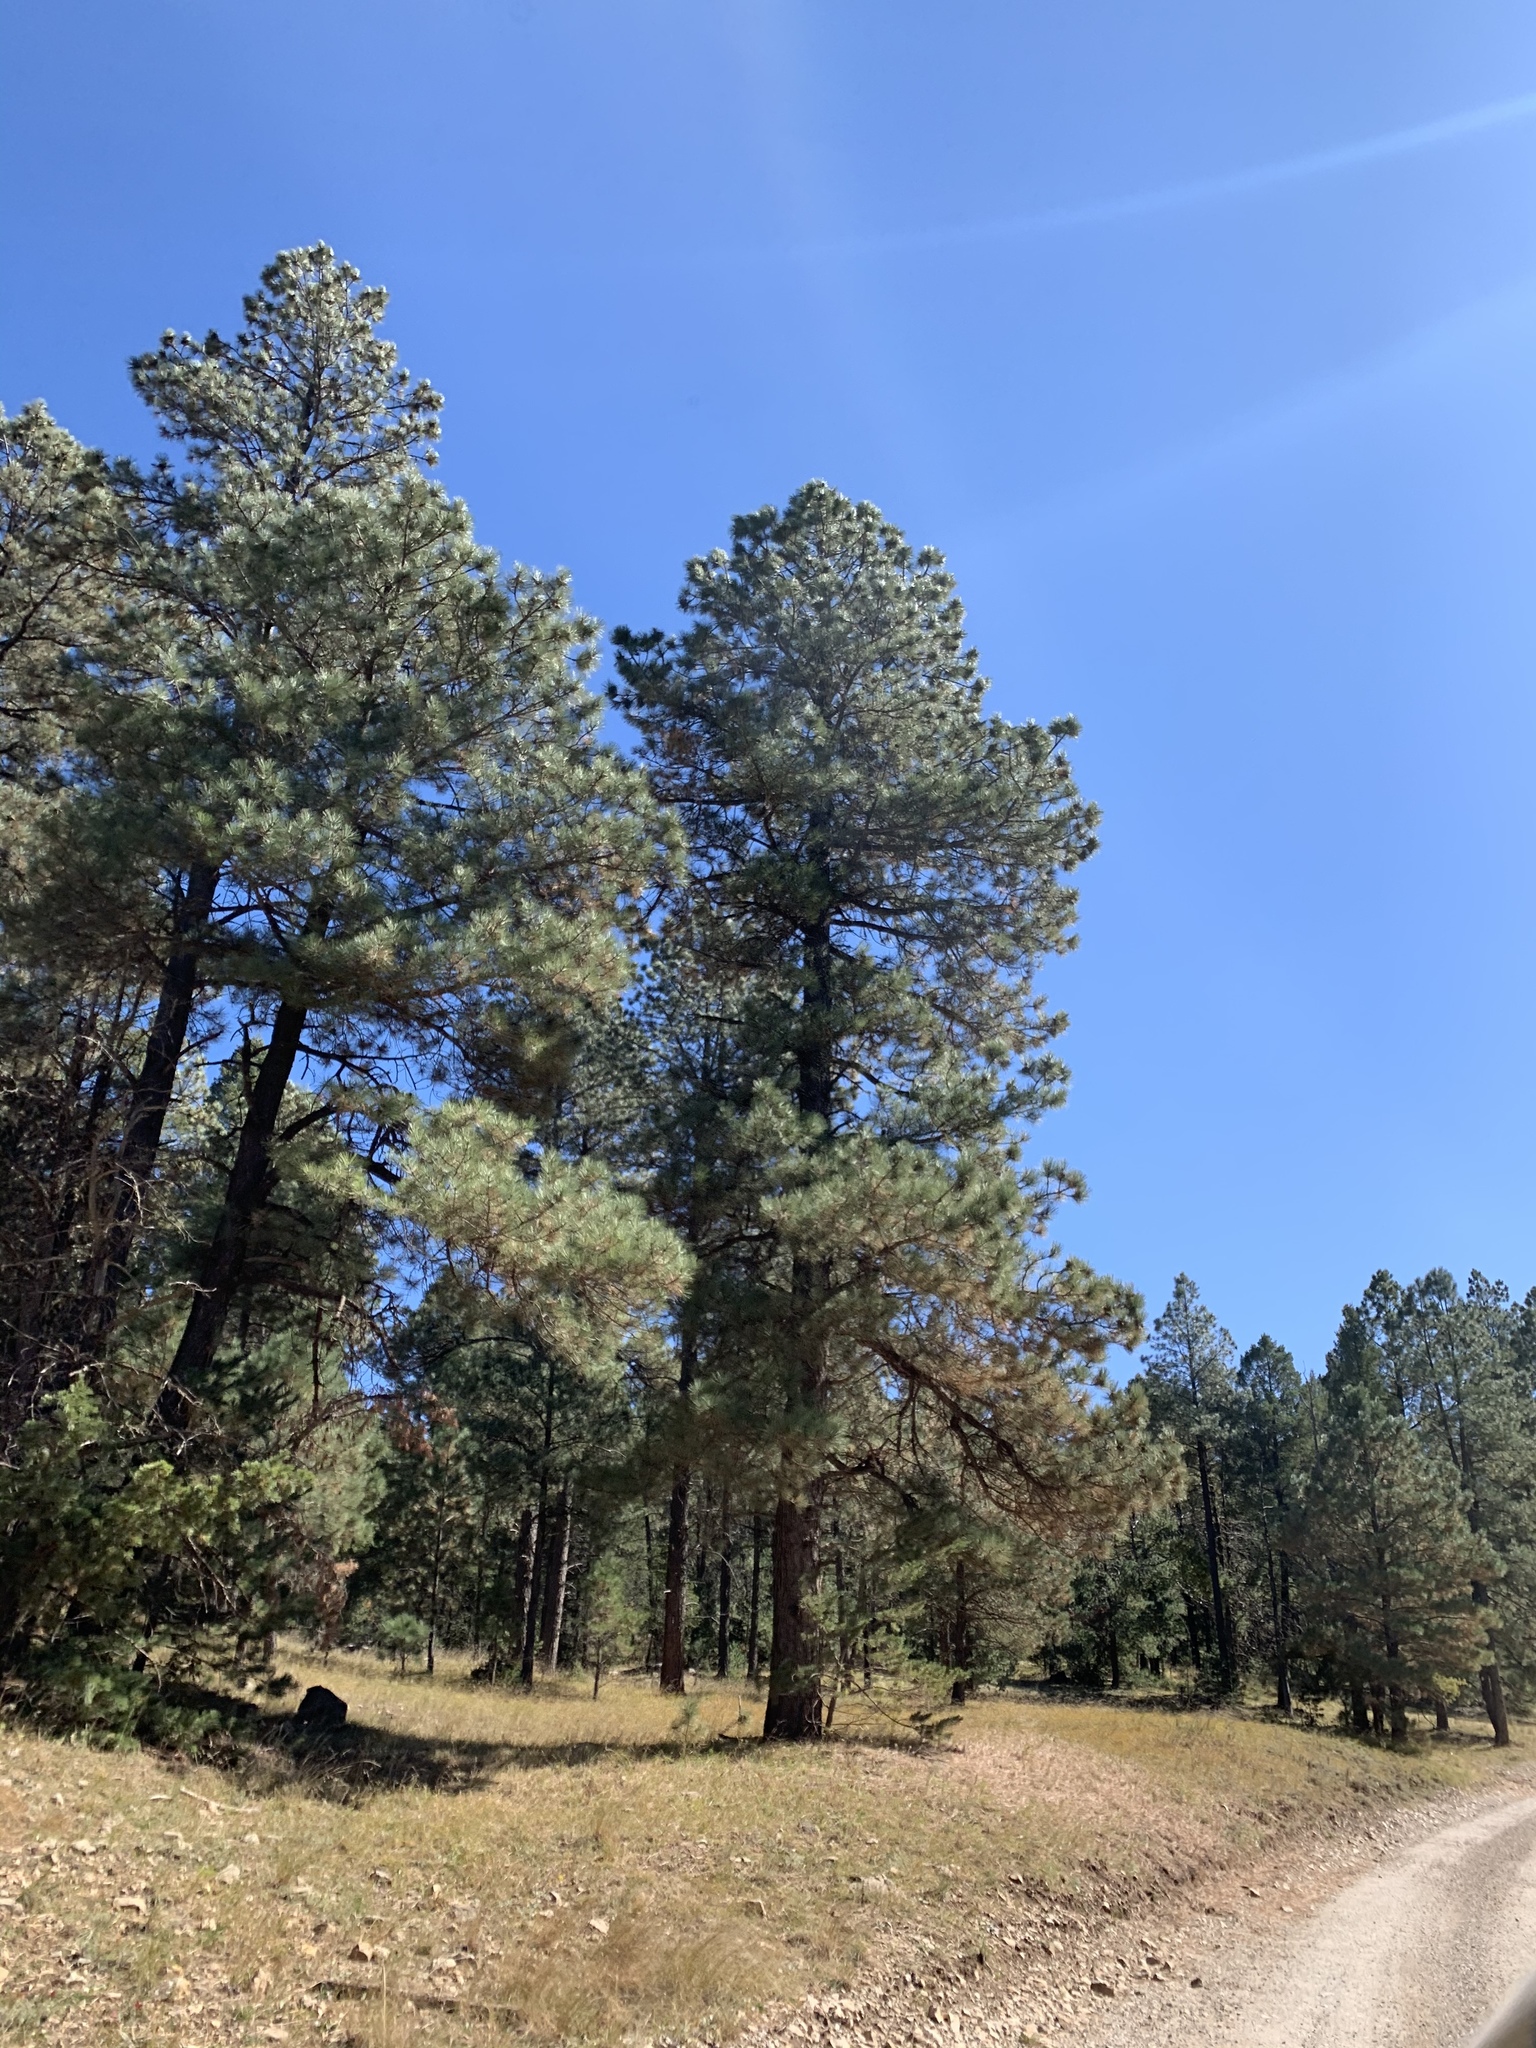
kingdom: Plantae
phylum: Tracheophyta
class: Pinopsida
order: Pinales
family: Pinaceae
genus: Pinus
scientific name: Pinus ponderosa
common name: Western yellow-pine
